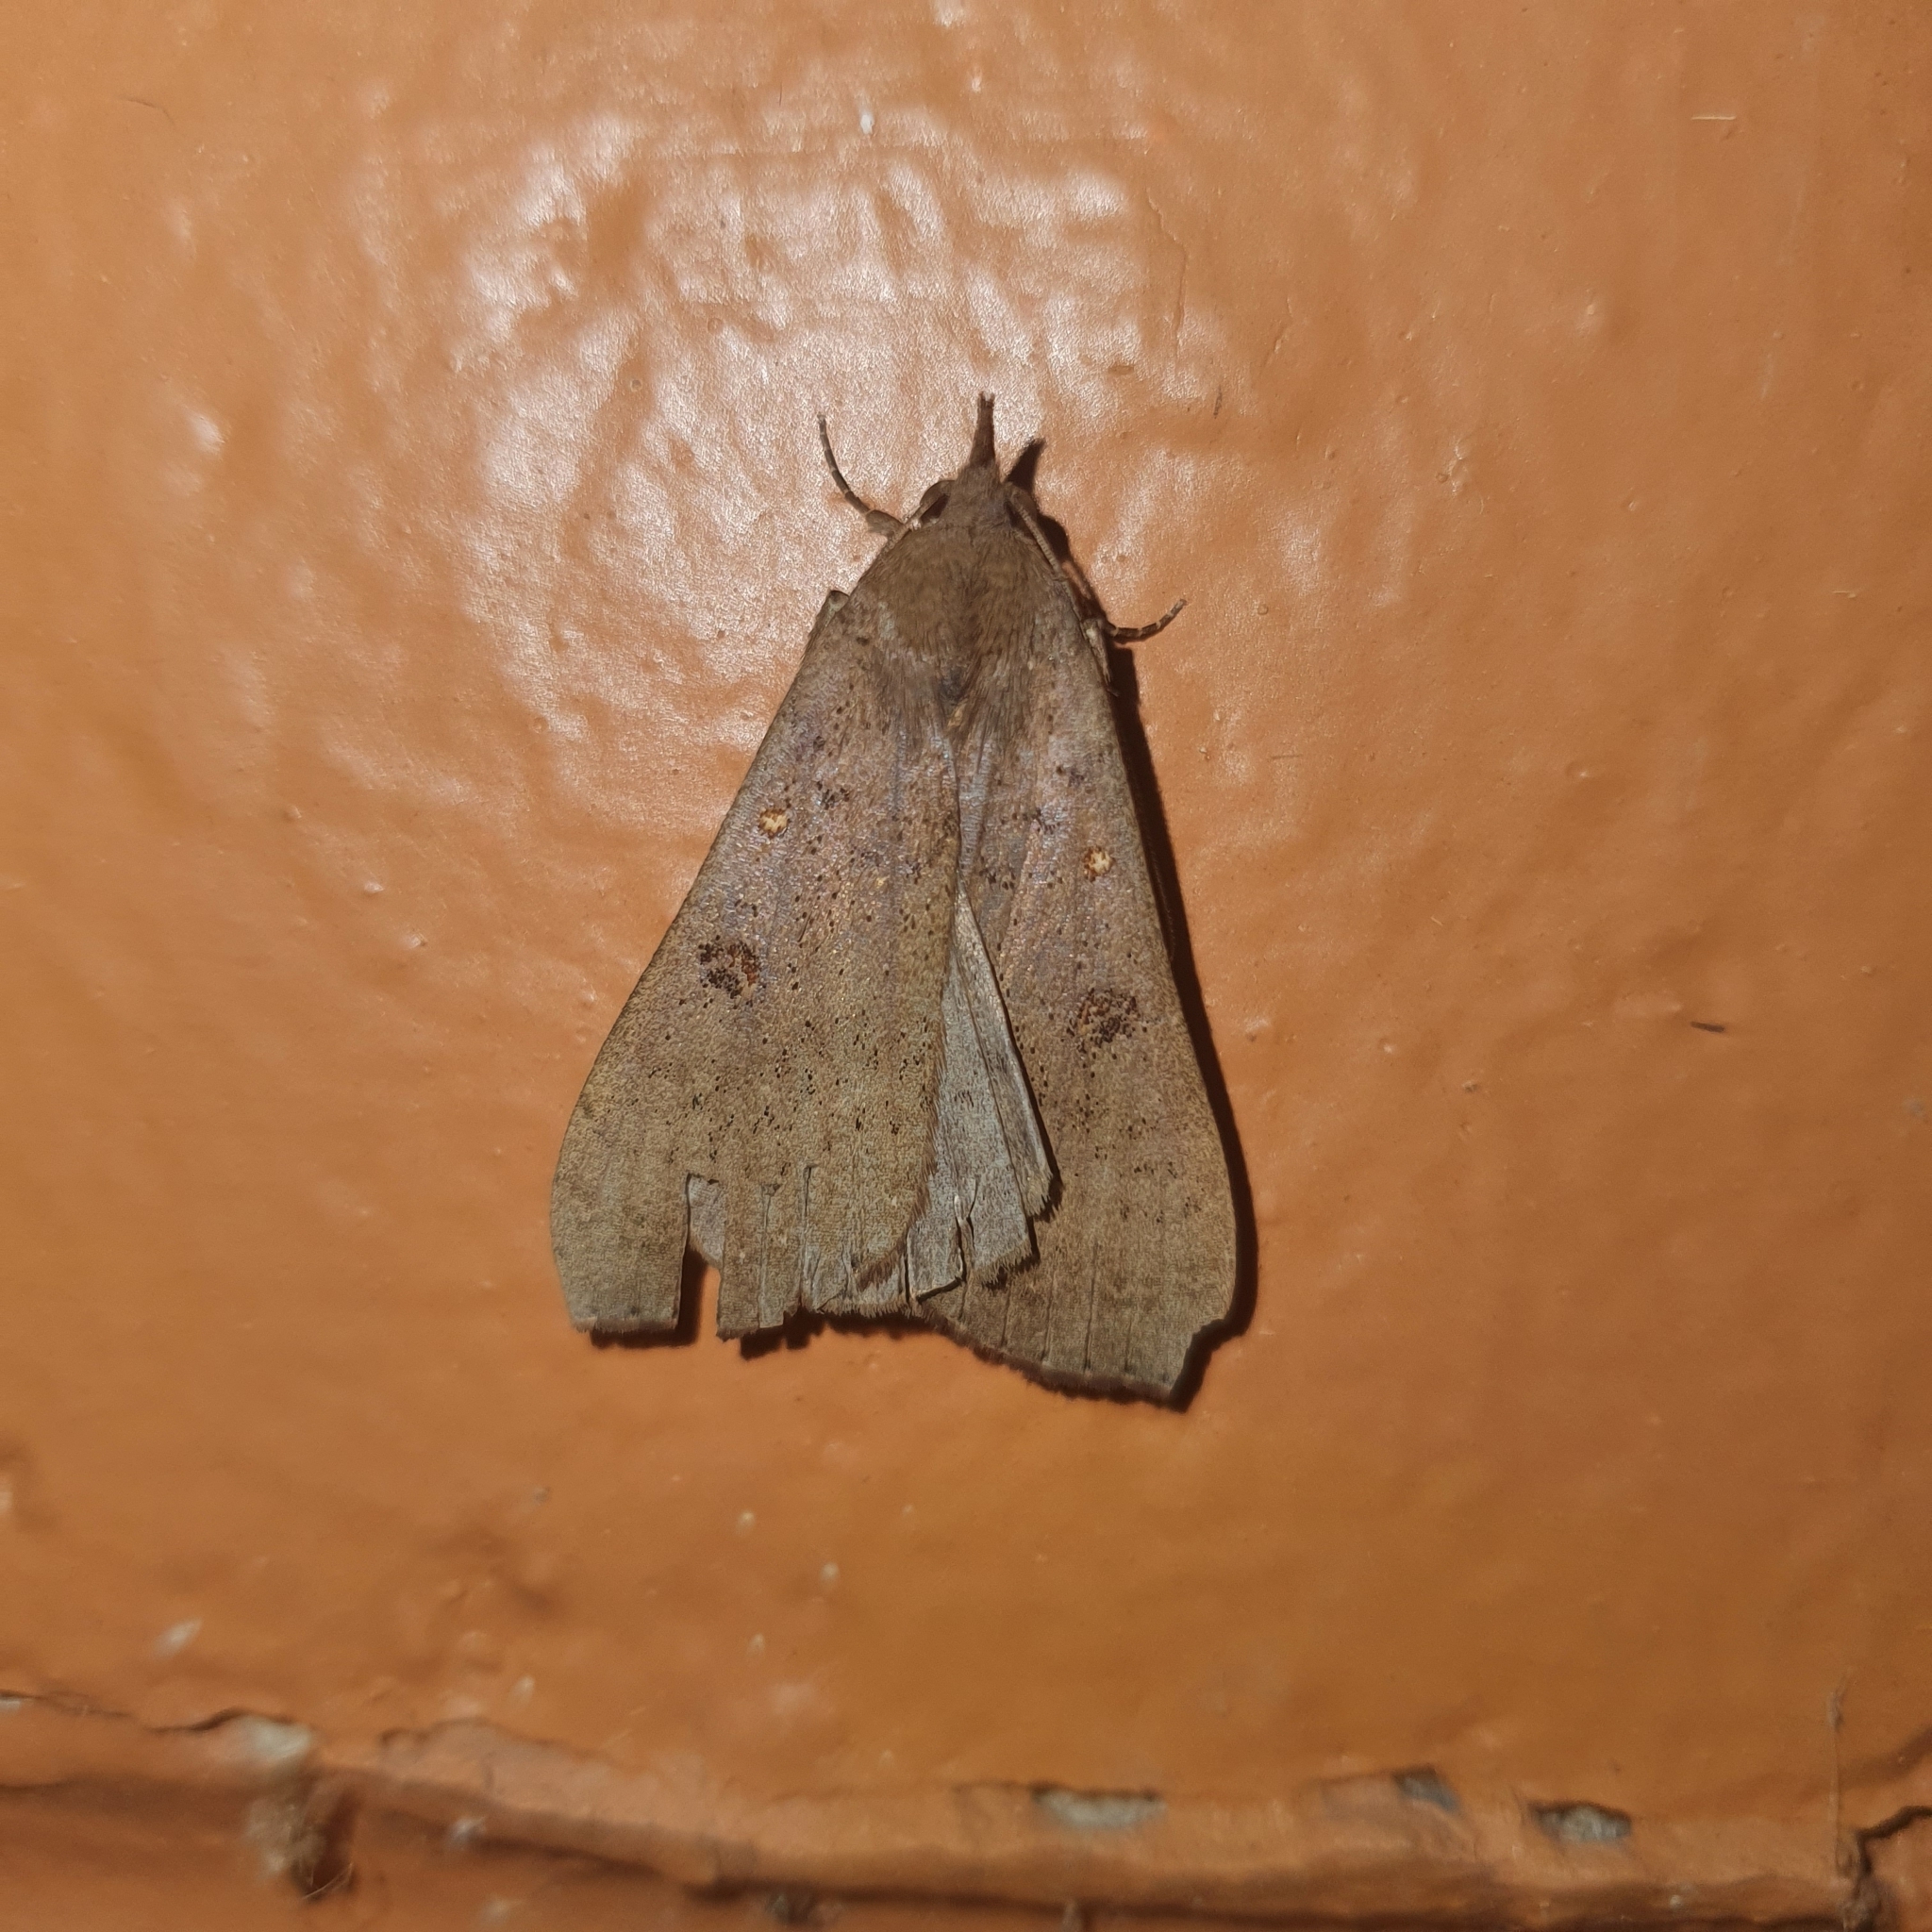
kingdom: Animalia
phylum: Arthropoda
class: Insecta
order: Lepidoptera
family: Erebidae
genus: Rhapsa
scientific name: Rhapsa suscitatalis
